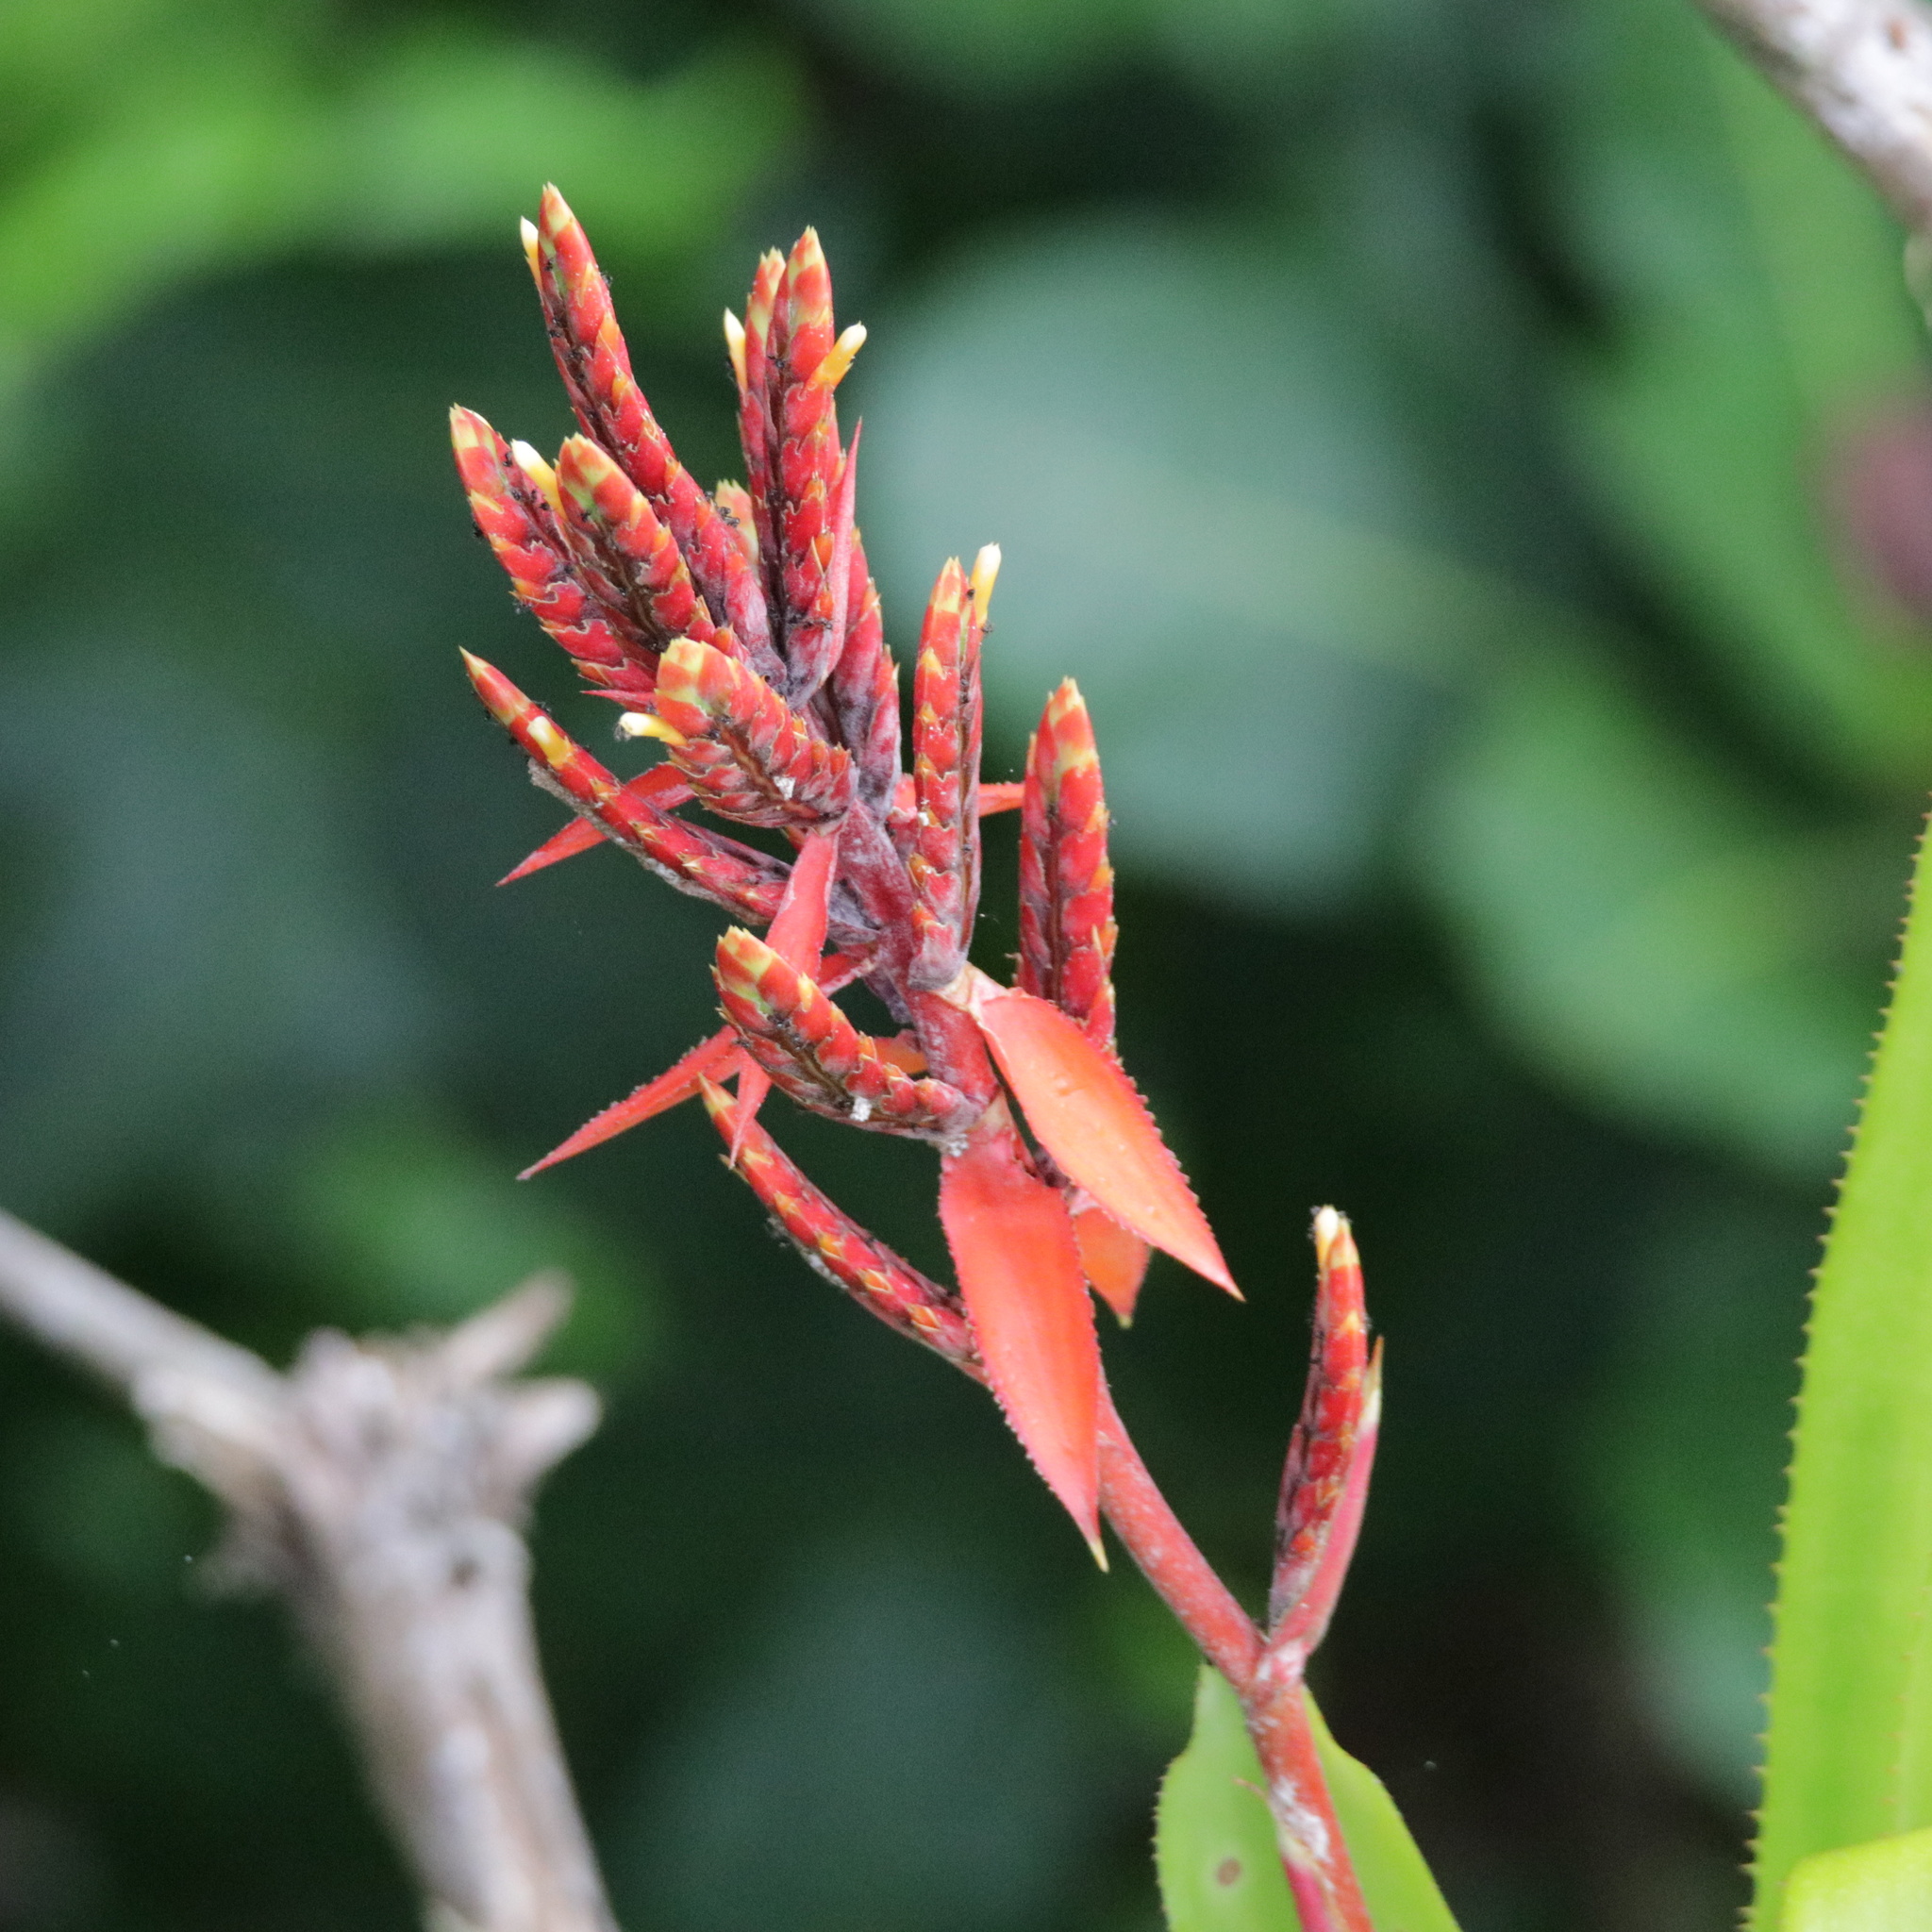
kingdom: Plantae
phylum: Tracheophyta
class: Liliopsida
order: Poales
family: Bromeliaceae
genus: Aechmea
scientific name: Aechmea tillandsioides
